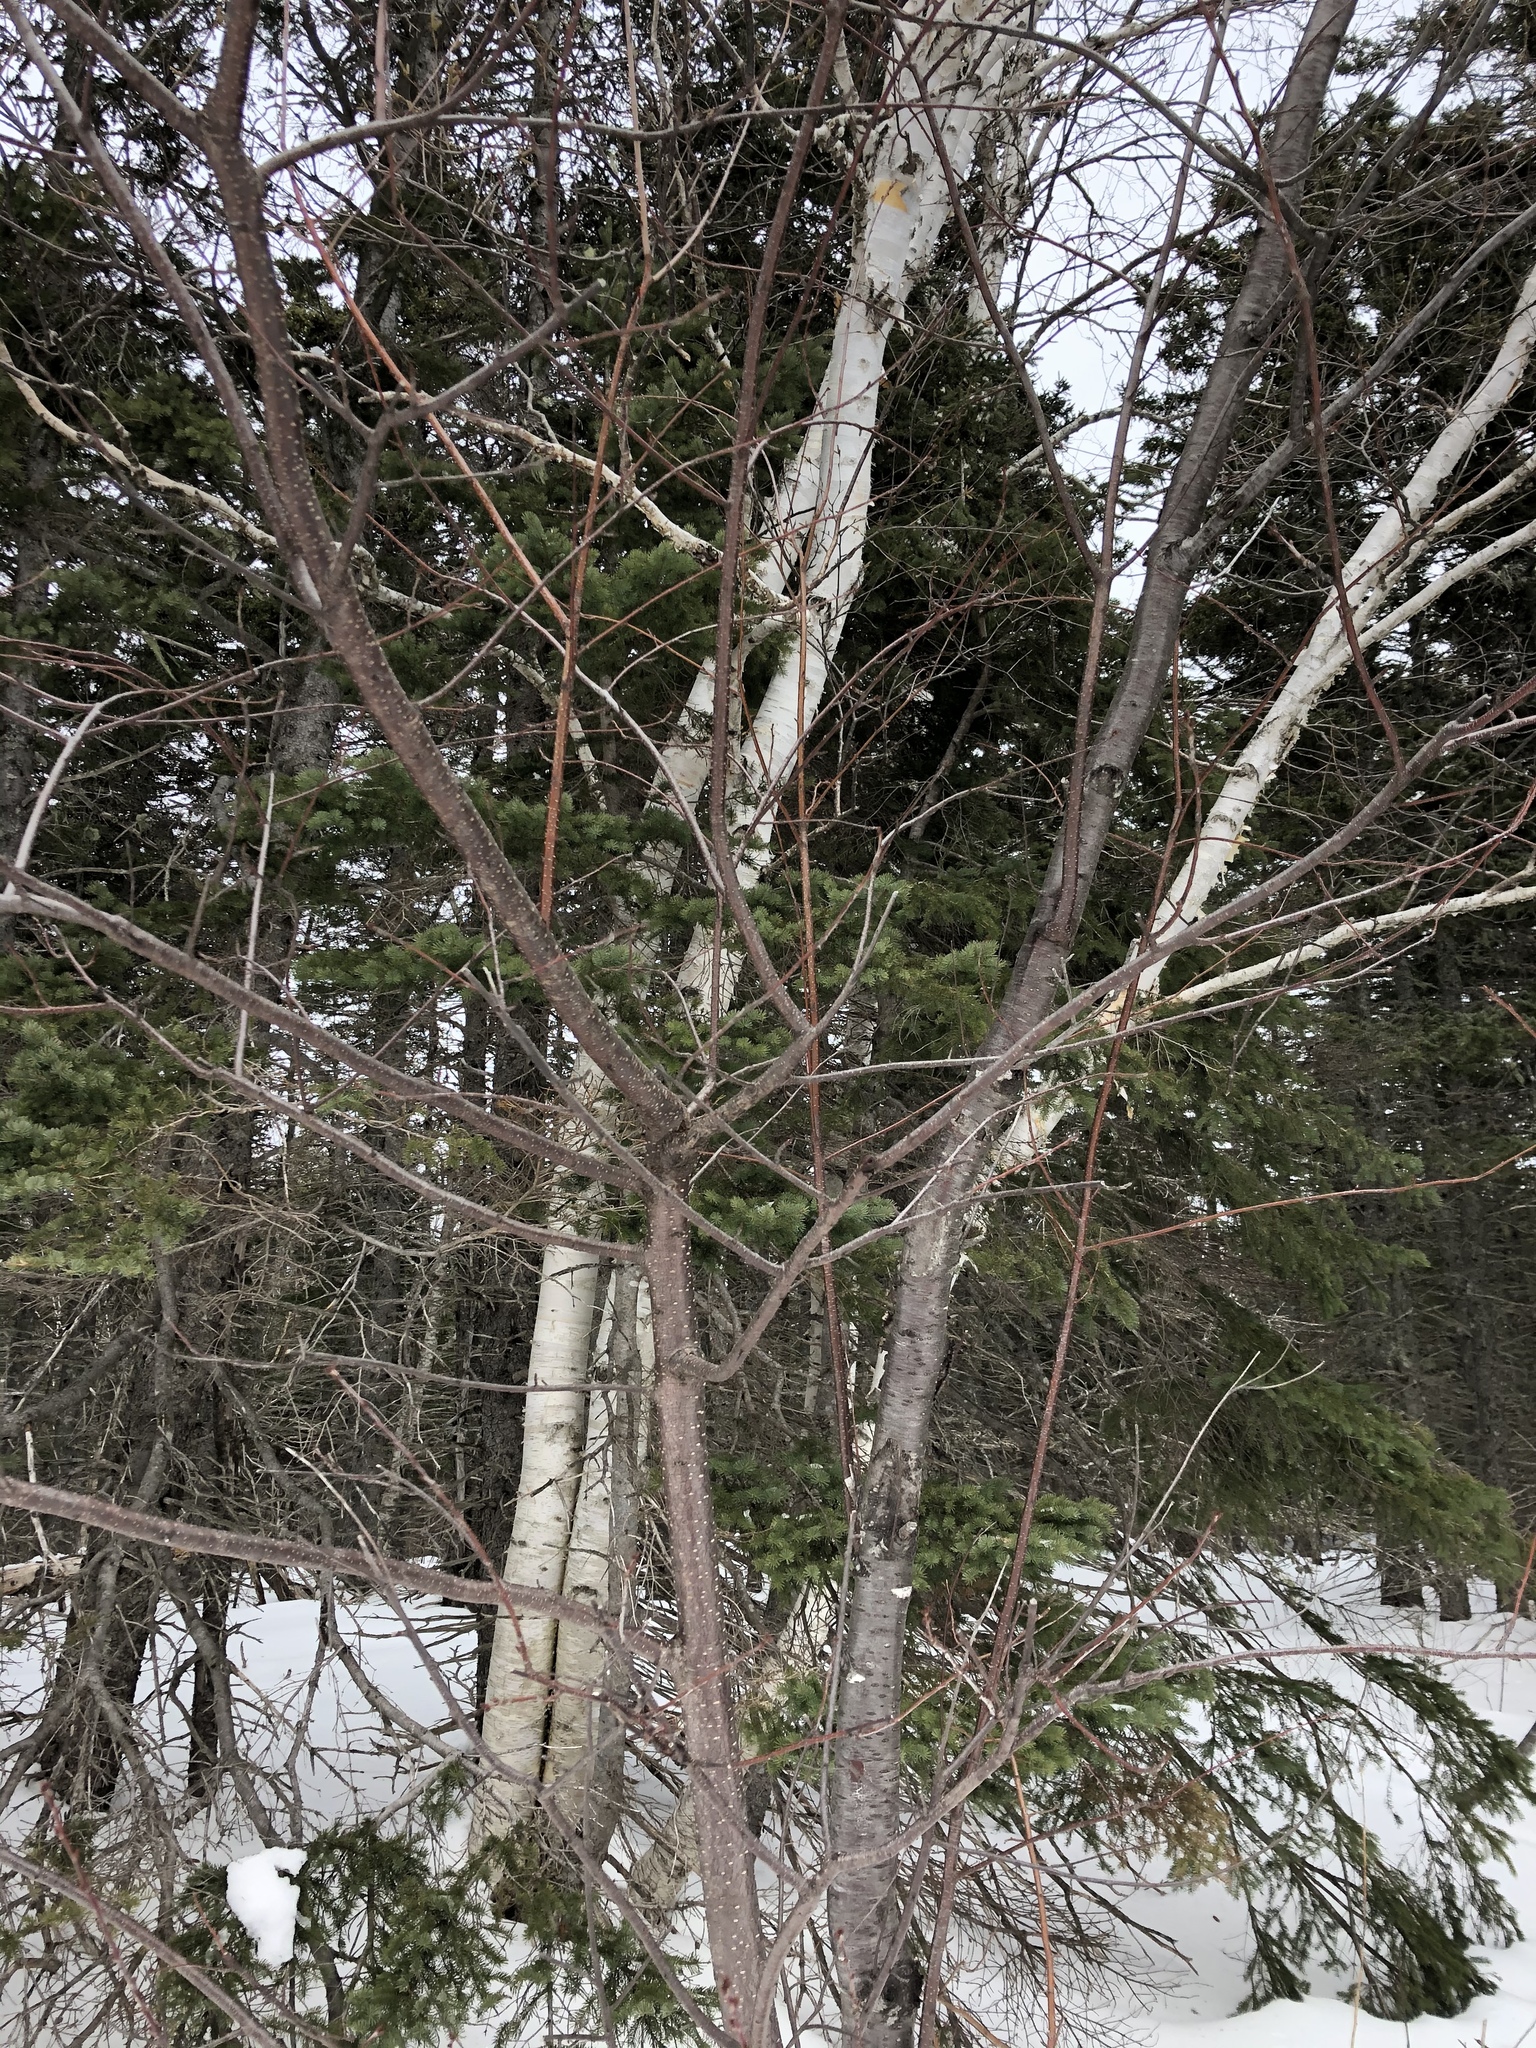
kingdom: Plantae
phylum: Tracheophyta
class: Magnoliopsida
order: Fagales
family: Betulaceae
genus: Alnus
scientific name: Alnus incana
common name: Grey alder
